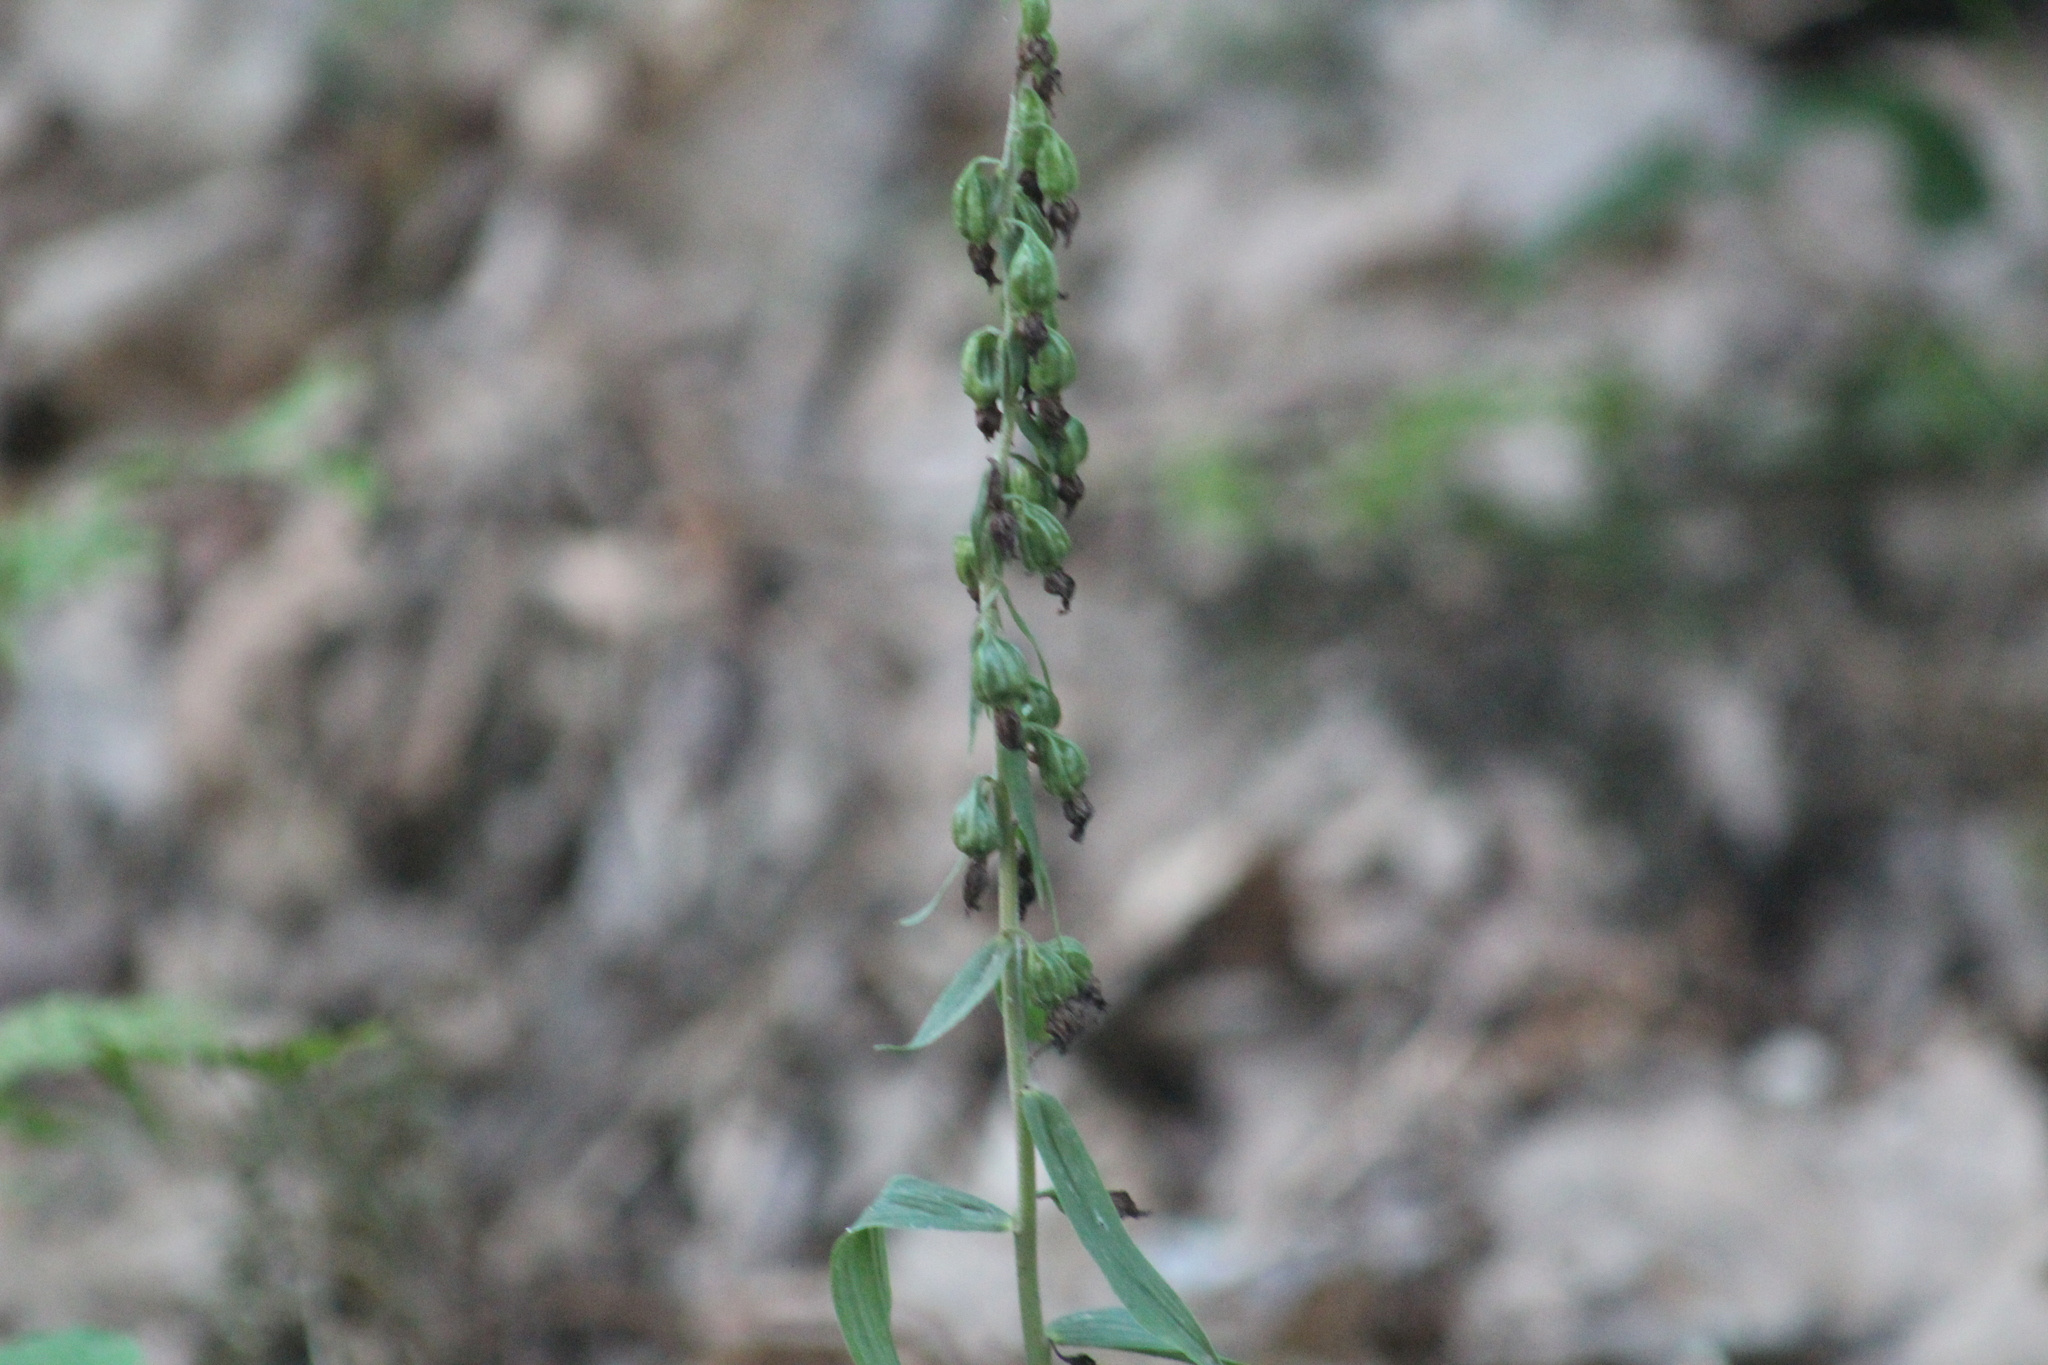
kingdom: Plantae
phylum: Tracheophyta
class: Liliopsida
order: Asparagales
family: Orchidaceae
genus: Epipactis
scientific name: Epipactis helleborine
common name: Broad-leaved helleborine
